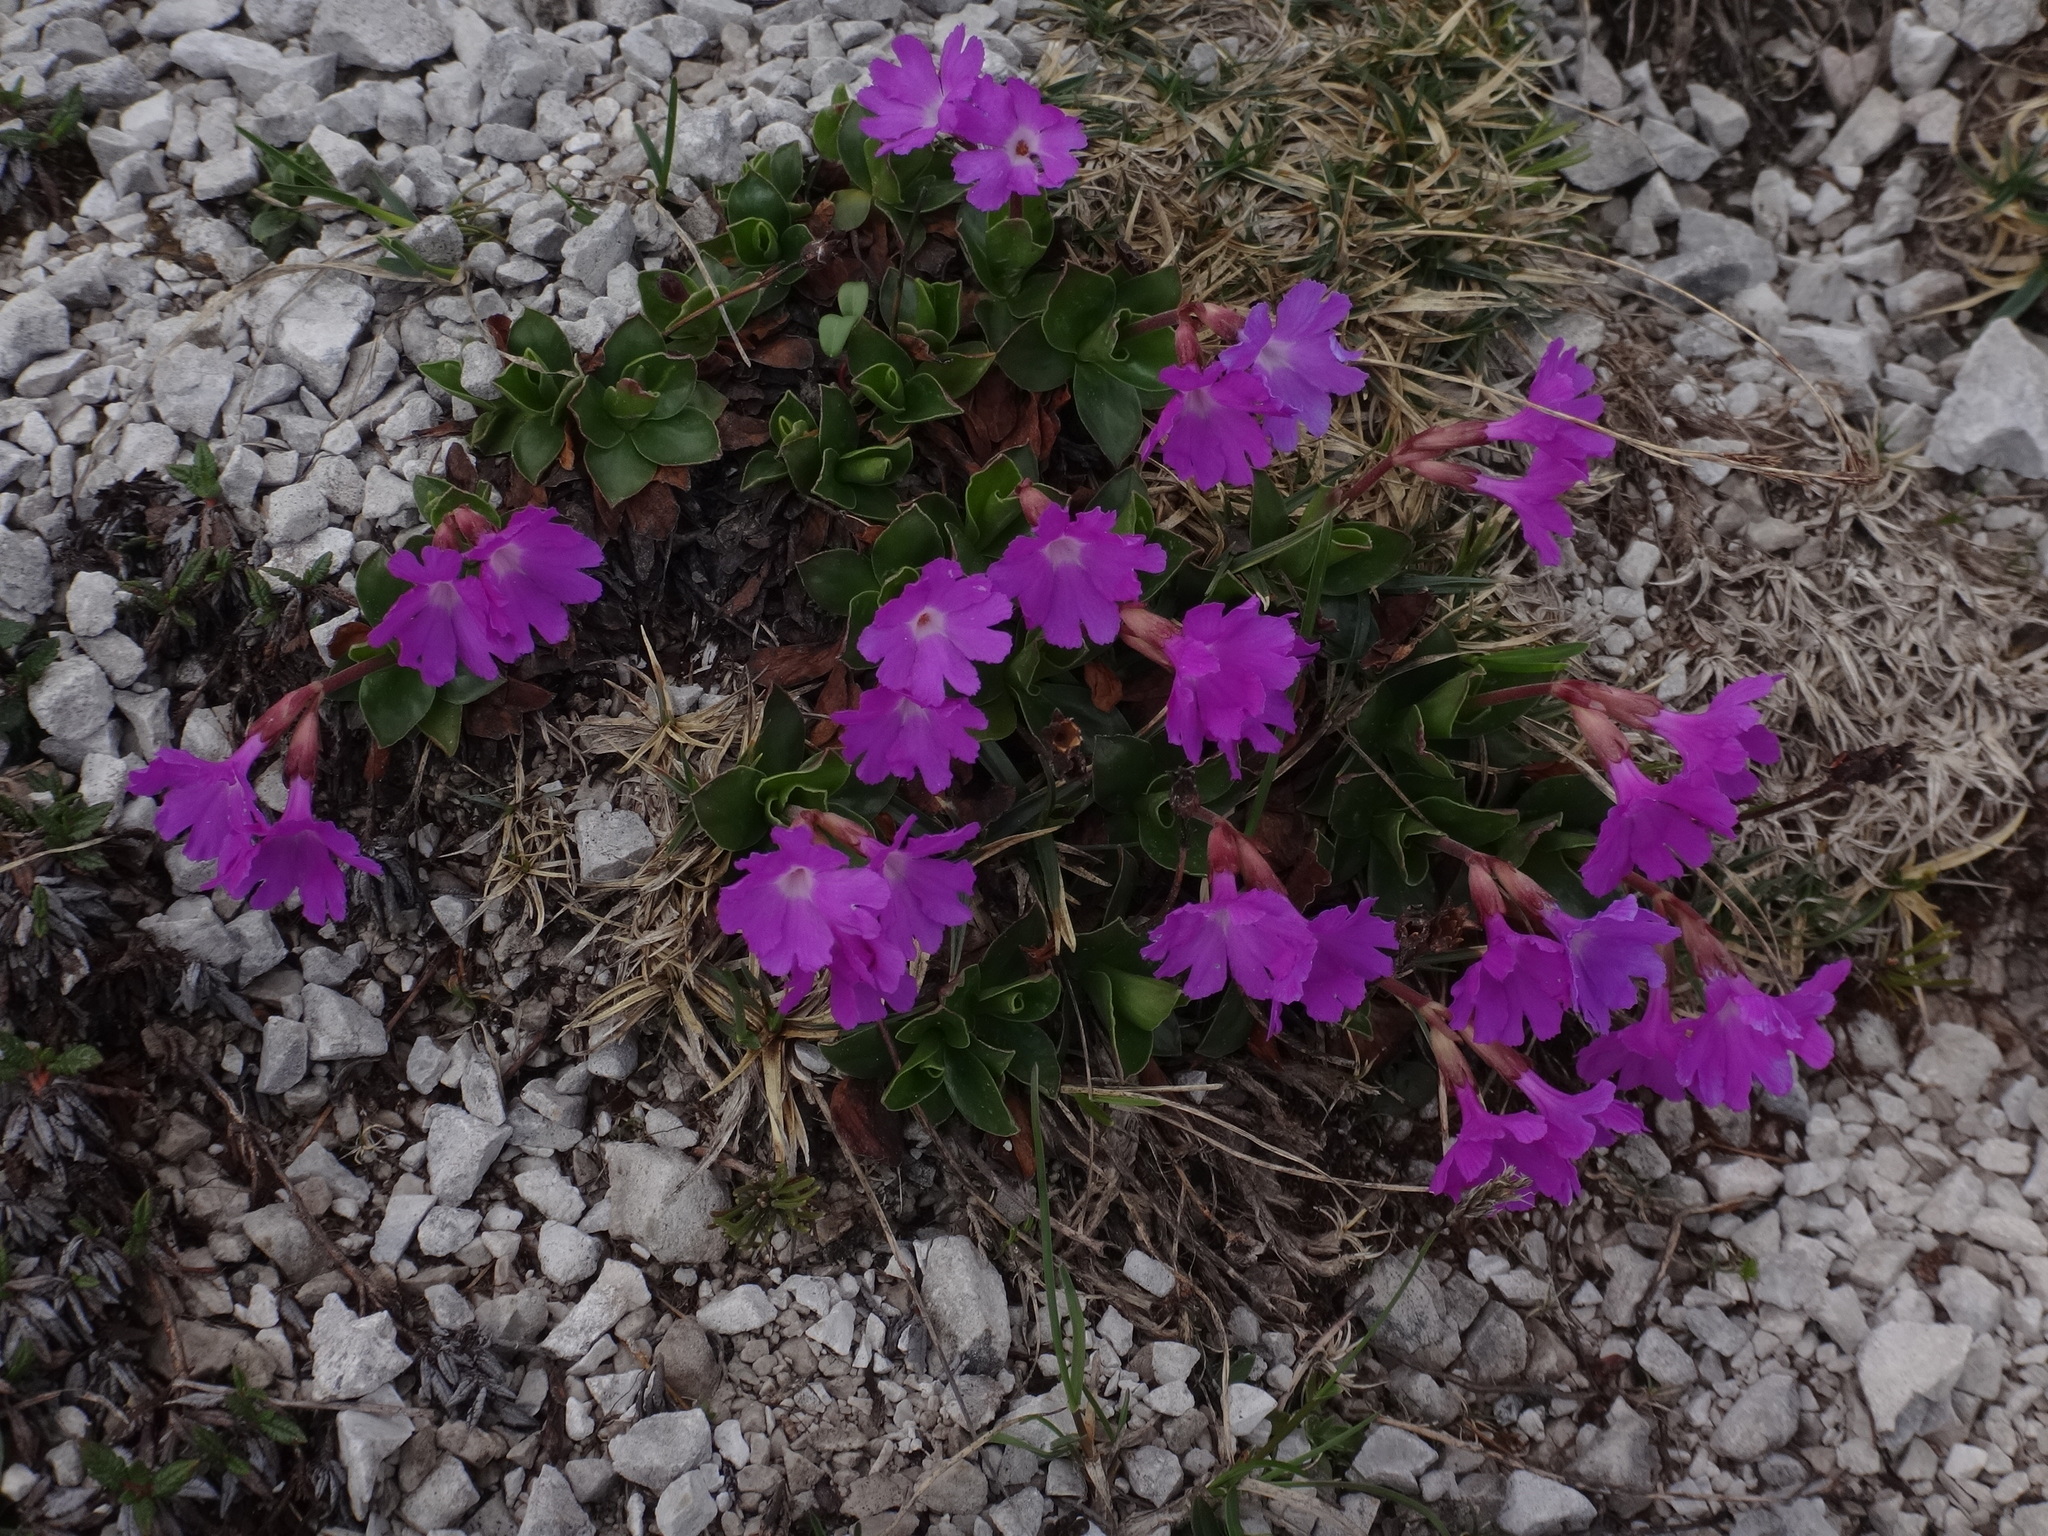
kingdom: Plantae
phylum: Tracheophyta
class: Magnoliopsida
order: Ericales
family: Primulaceae
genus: Primula
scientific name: Primula clusiana
